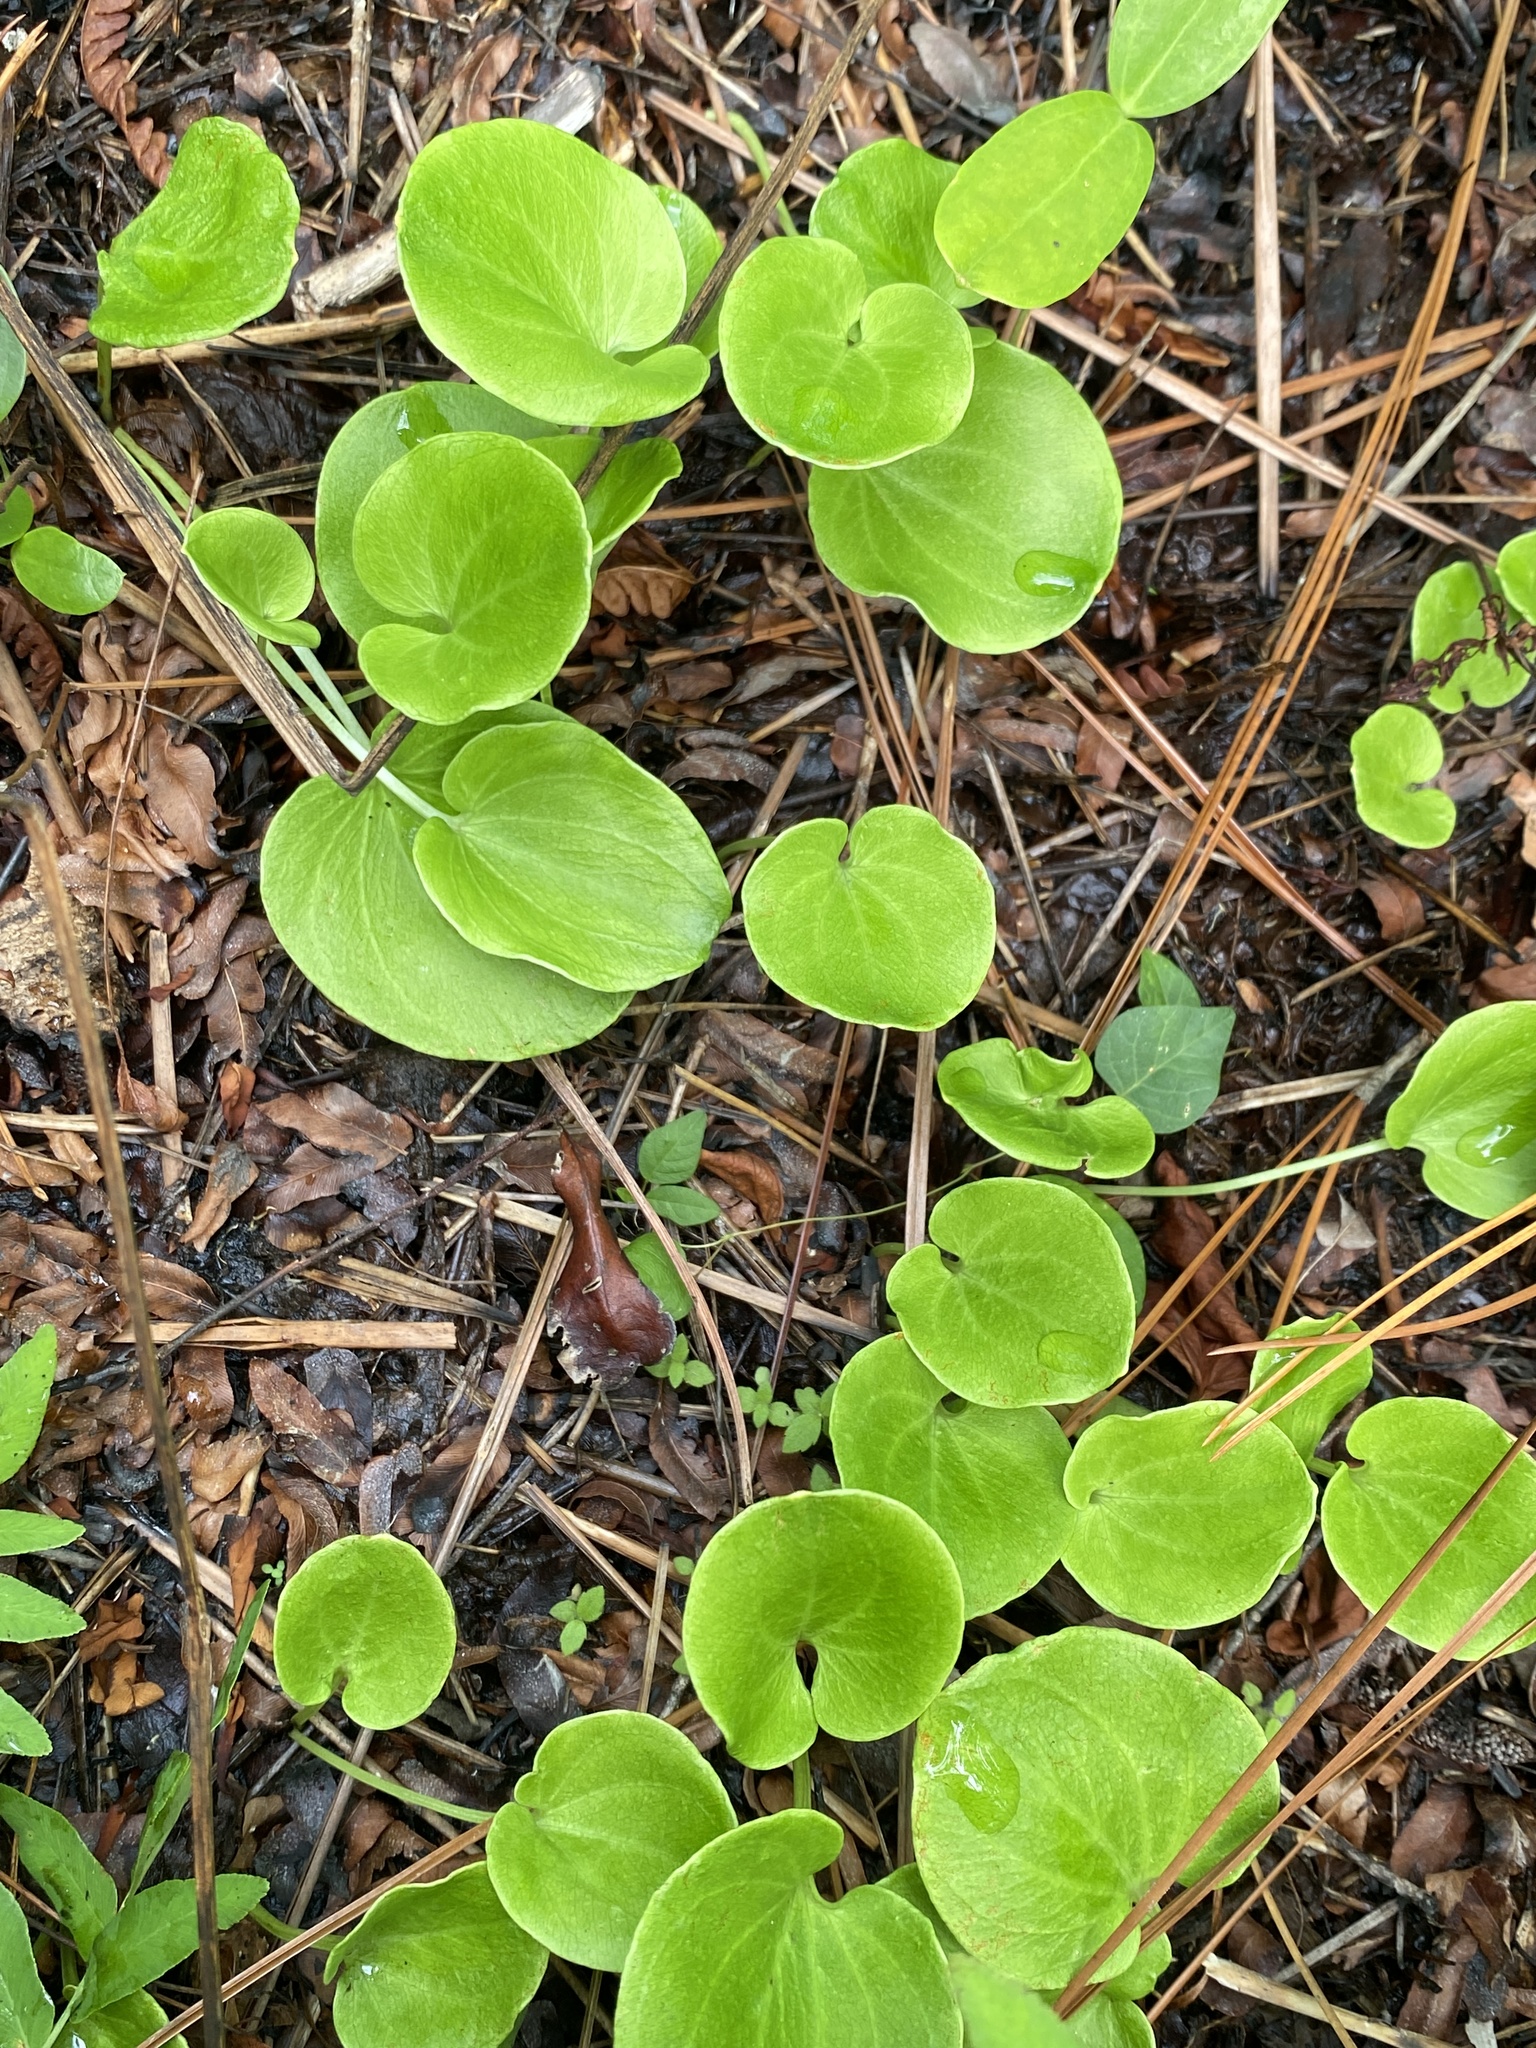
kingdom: Plantae
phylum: Tracheophyta
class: Magnoliopsida
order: Celastrales
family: Parnassiaceae
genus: Parnassia
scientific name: Parnassia caroliniana
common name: Carolina grass of parnassus
